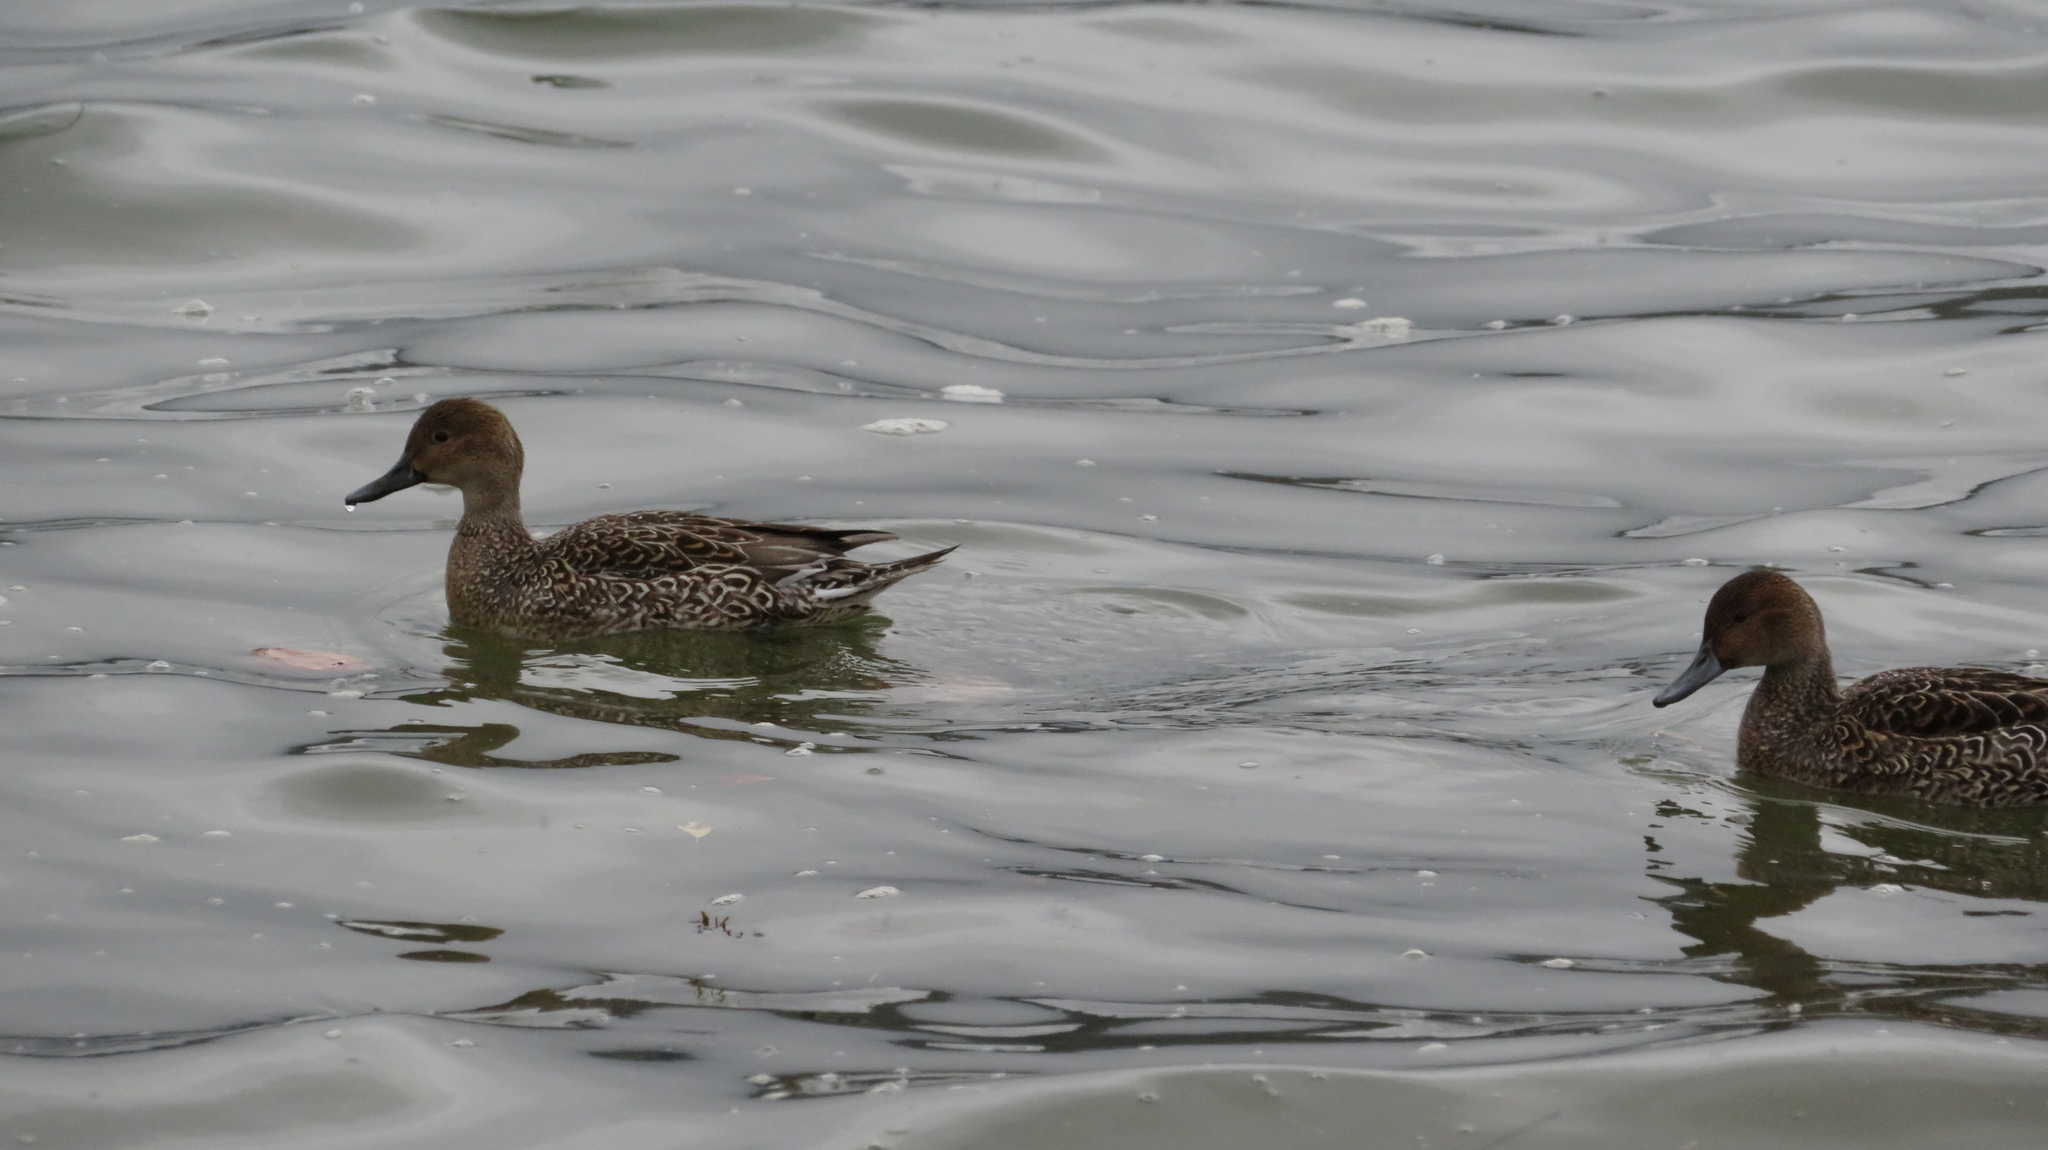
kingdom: Animalia
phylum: Chordata
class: Aves
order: Anseriformes
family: Anatidae
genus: Anas
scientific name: Anas acuta
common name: Northern pintail
